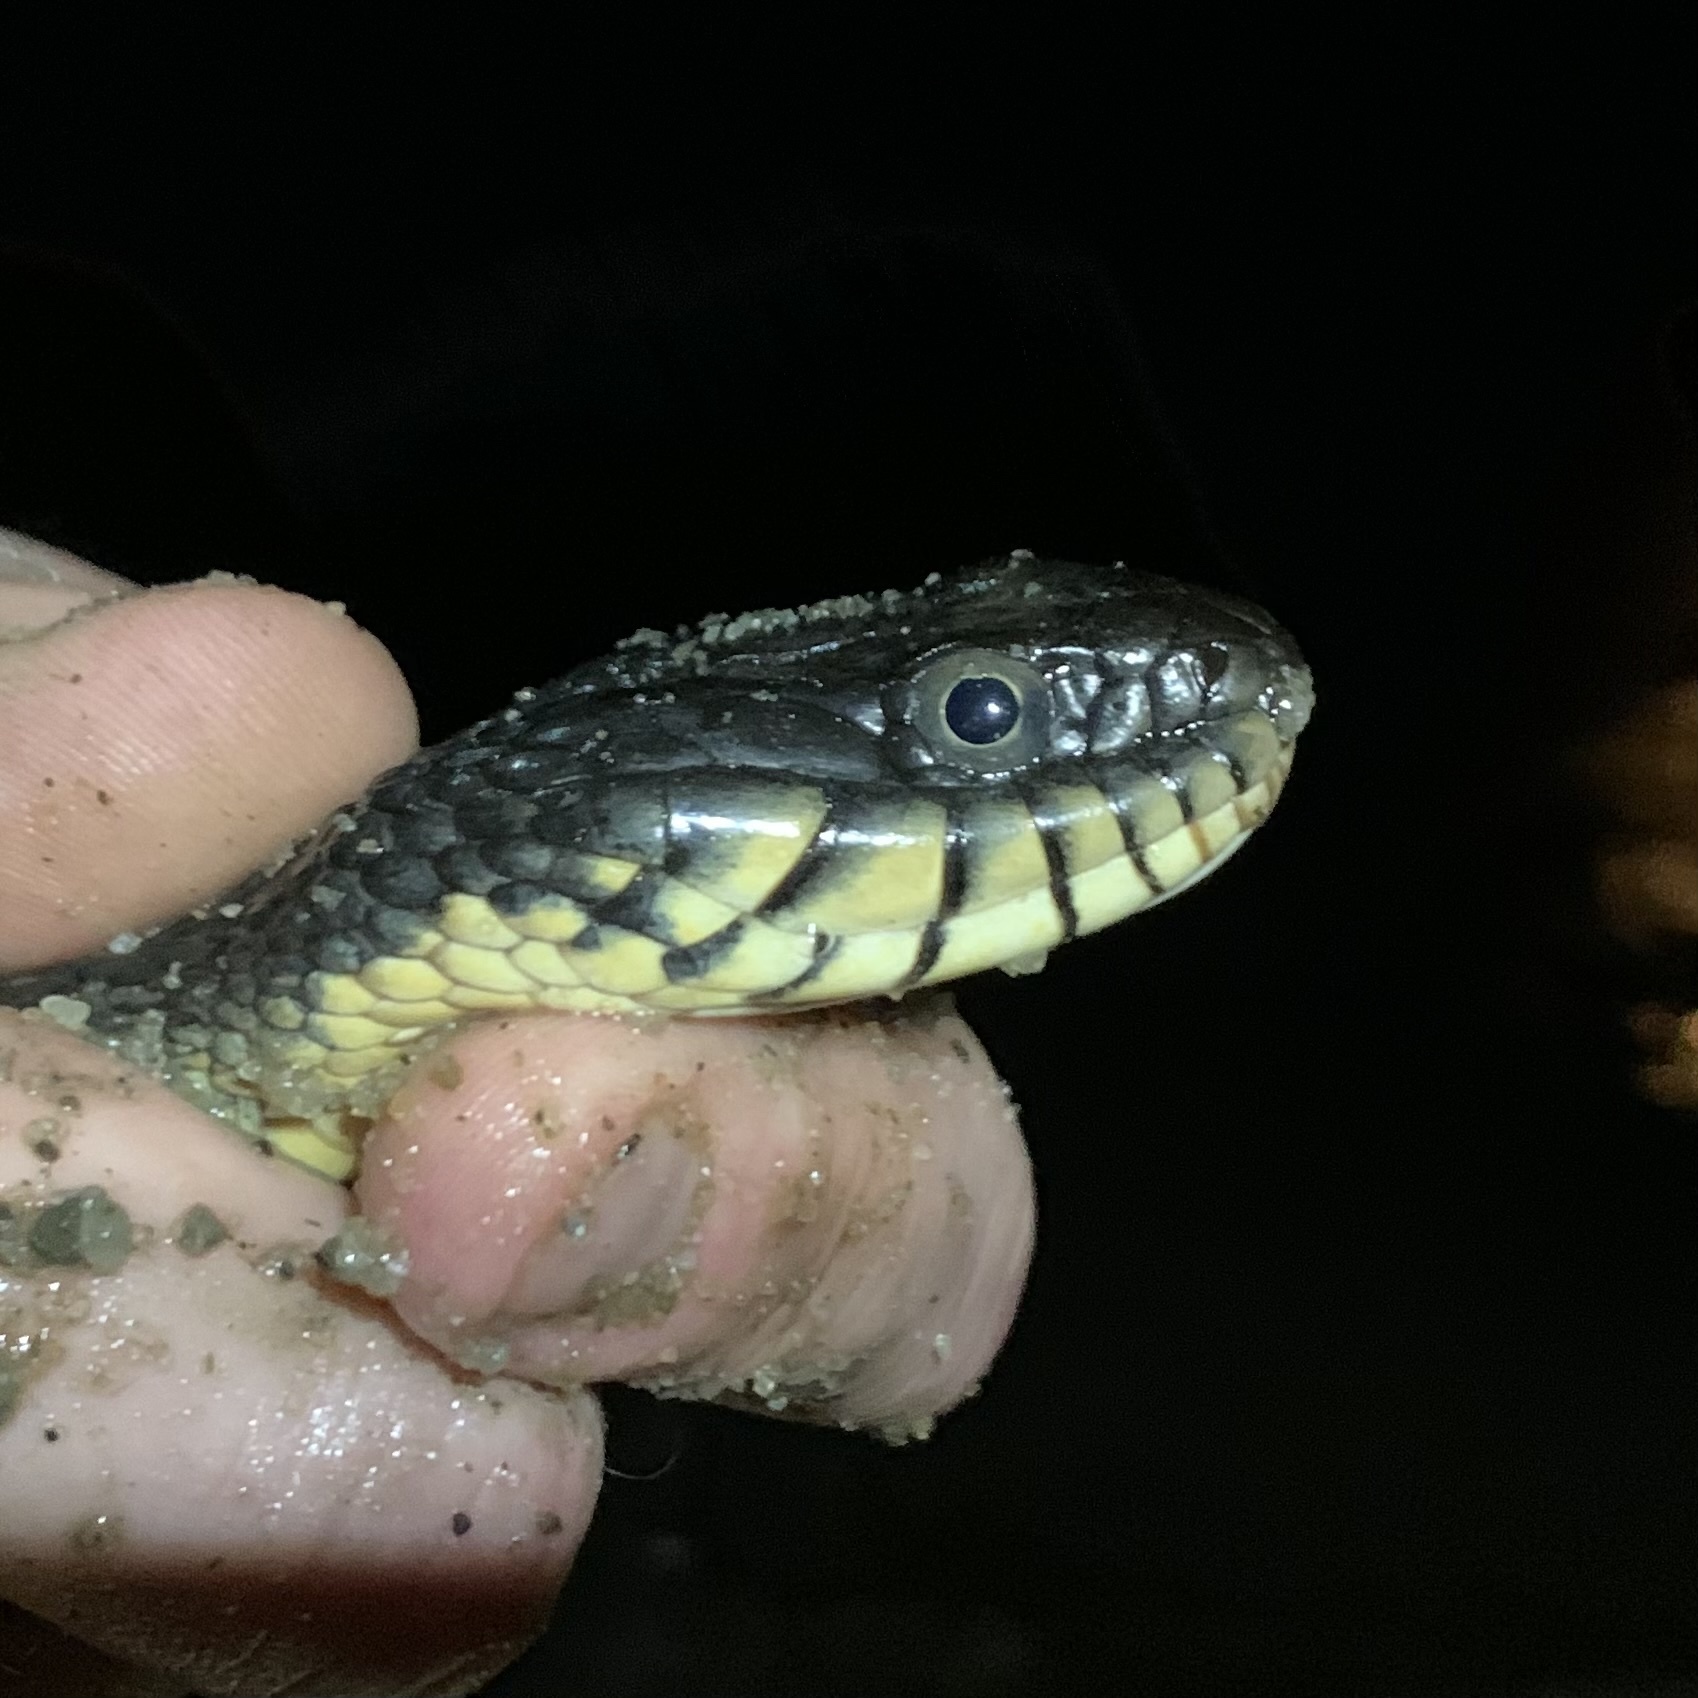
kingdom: Animalia
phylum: Chordata
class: Squamata
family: Colubridae
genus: Nerodia
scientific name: Nerodia erythrogaster
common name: Plainbelly water snake
